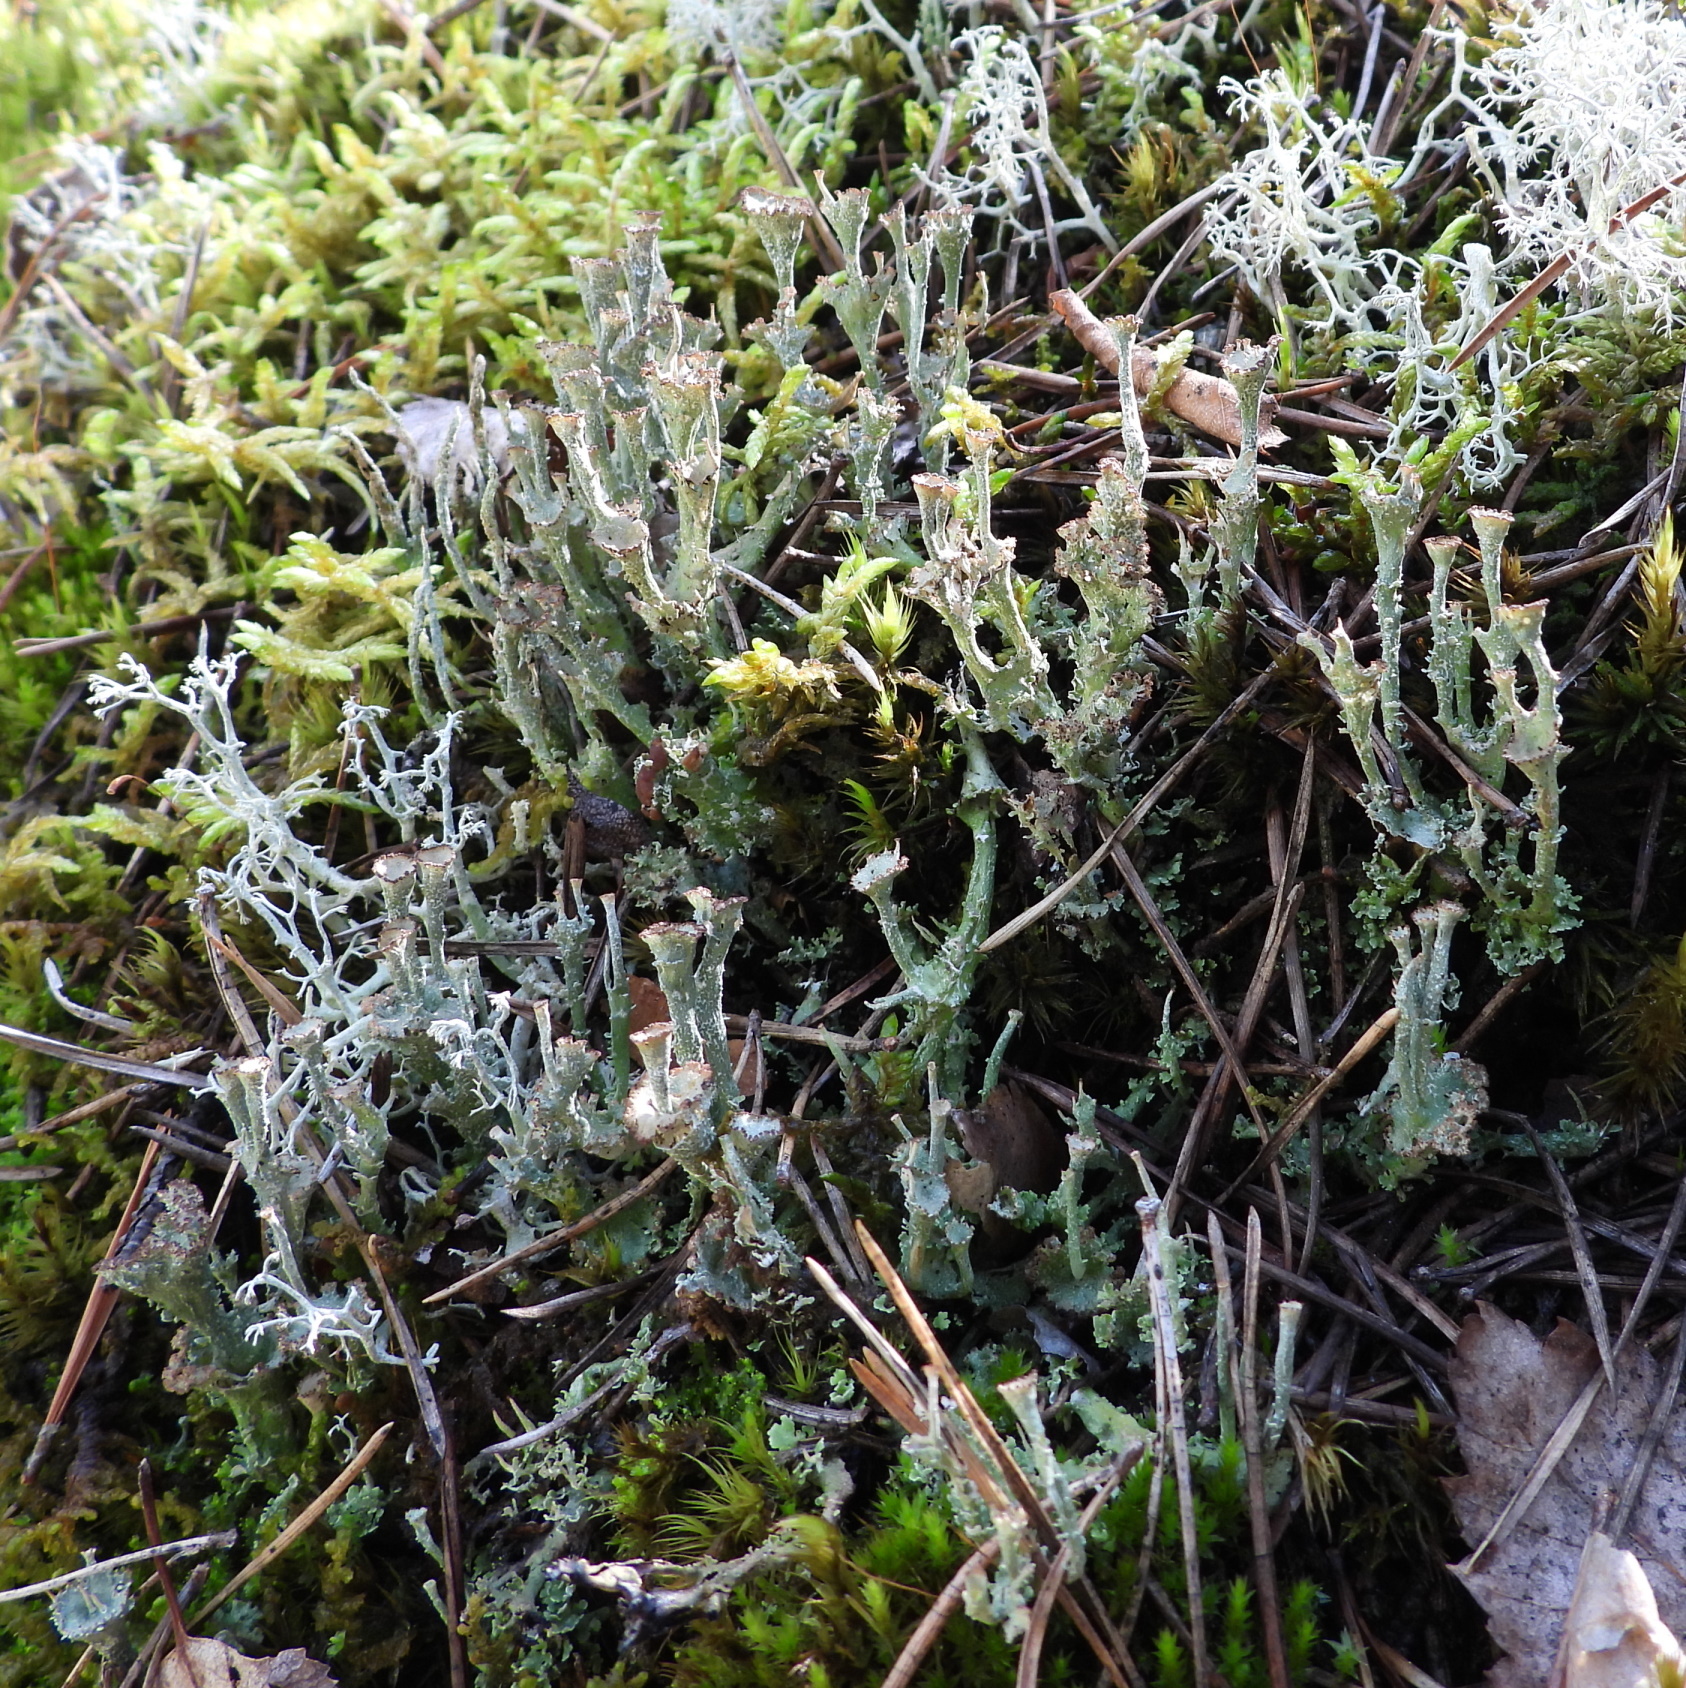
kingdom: Fungi
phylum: Ascomycota
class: Lecanoromycetes
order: Lecanorales
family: Cladoniaceae
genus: Cladonia
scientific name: Cladonia gracilis
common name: Smooth clad lichen
